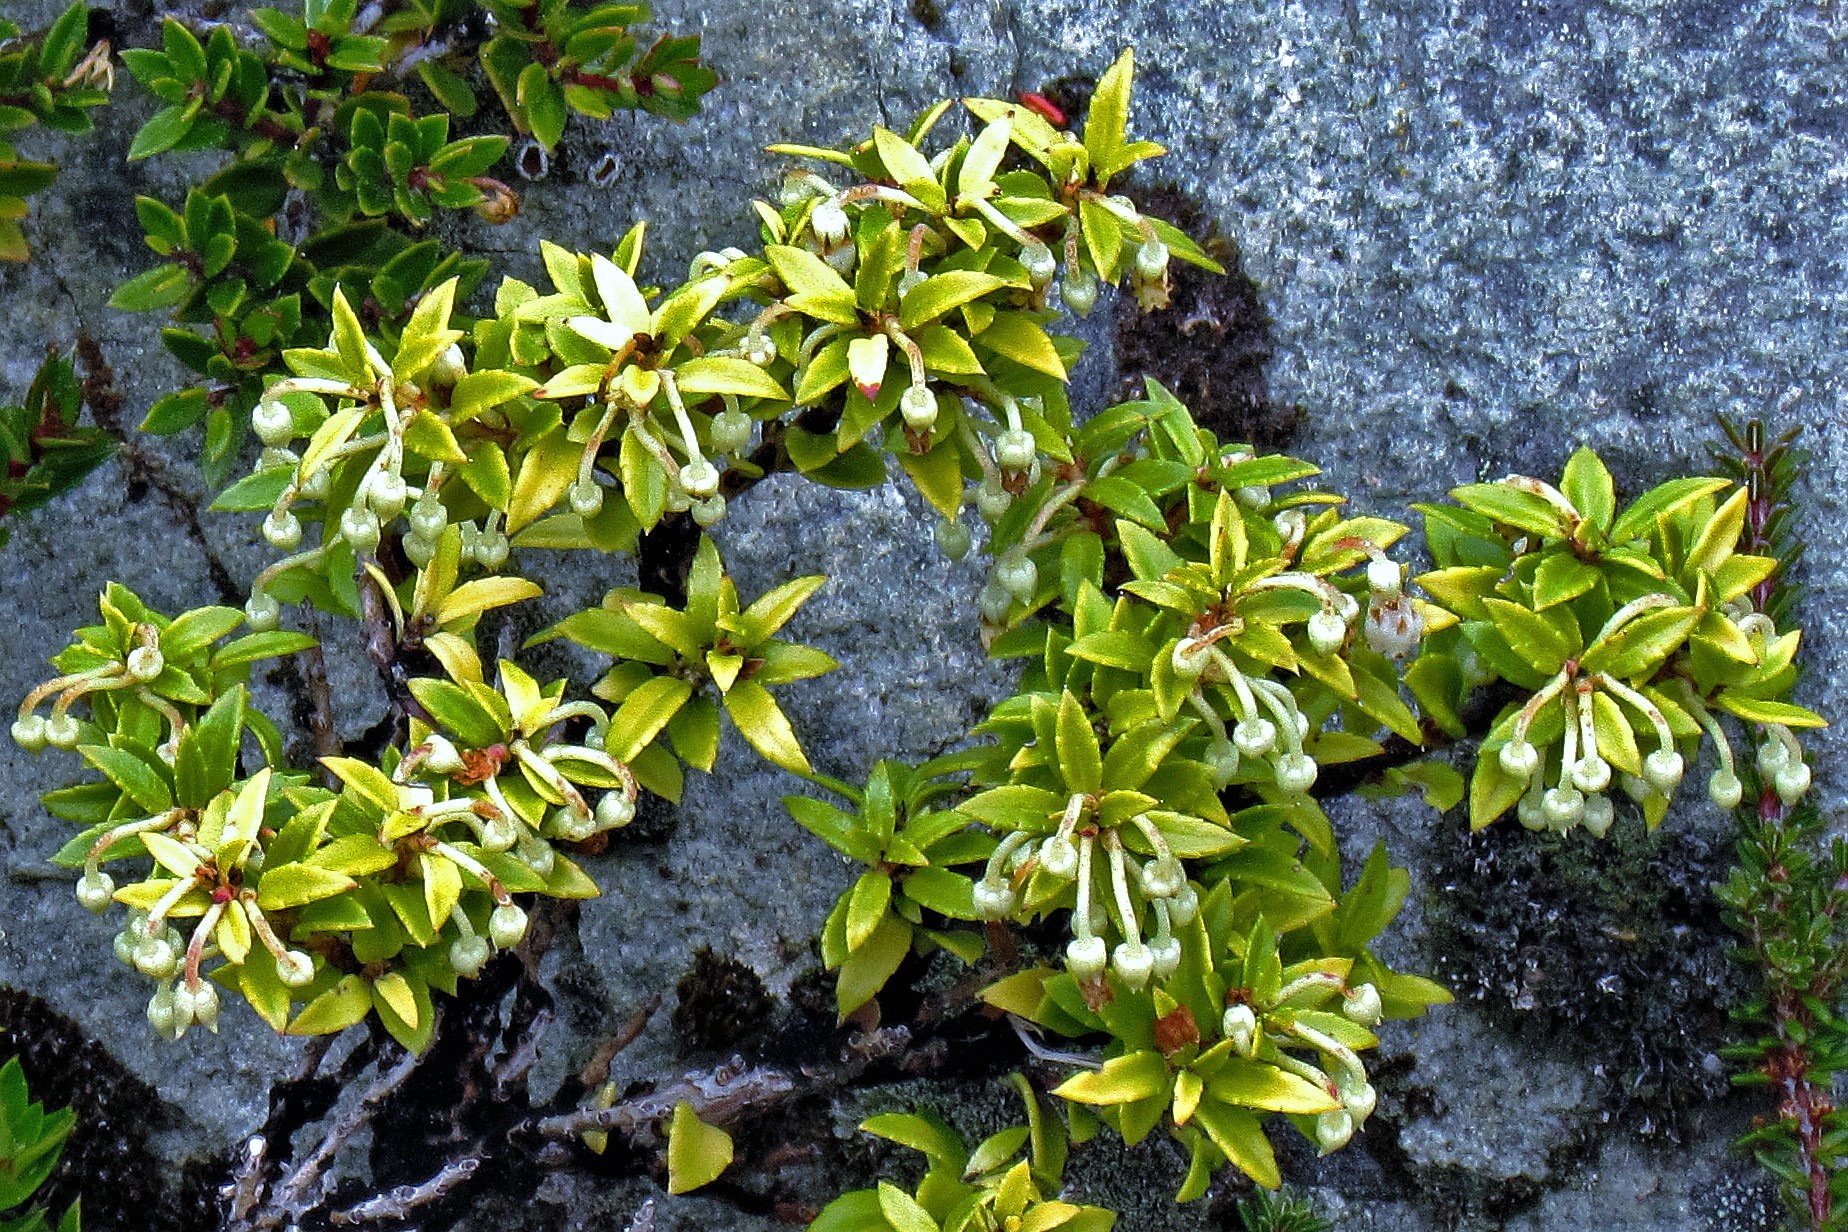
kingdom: Plantae
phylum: Tracheophyta
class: Magnoliopsida
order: Ericales
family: Ericaceae
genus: Gaultheria
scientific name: Gaultheria mucronata
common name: Prickly heath
